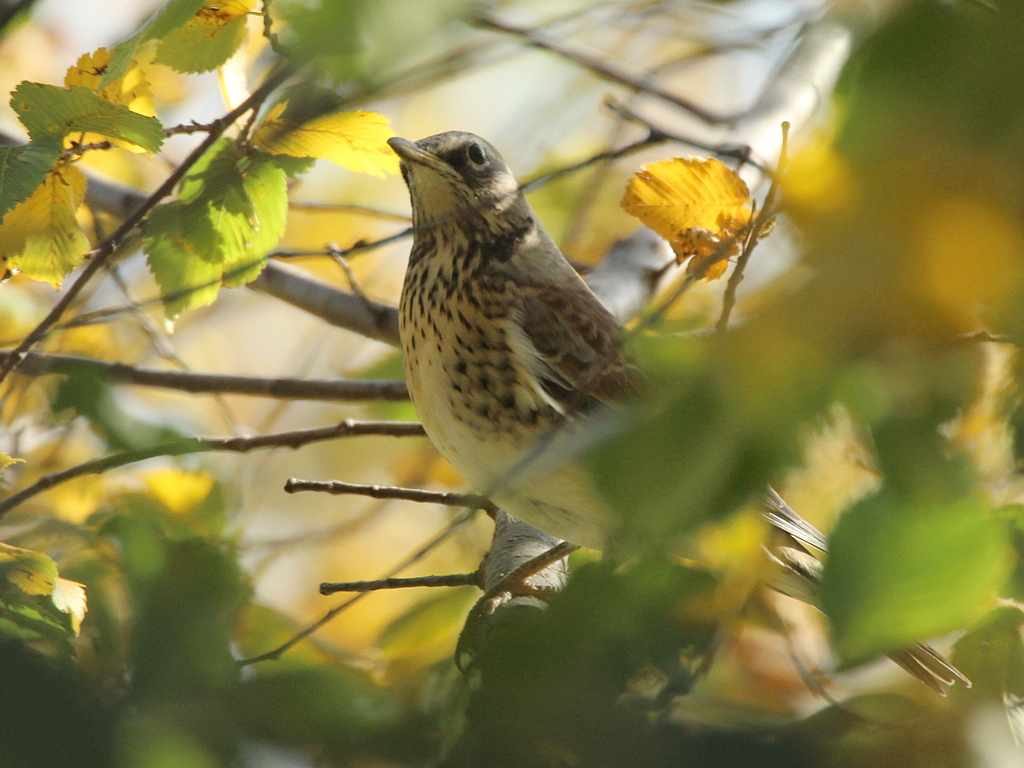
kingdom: Animalia
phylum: Chordata
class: Aves
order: Passeriformes
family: Turdidae
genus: Turdus
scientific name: Turdus pilaris
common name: Fieldfare
